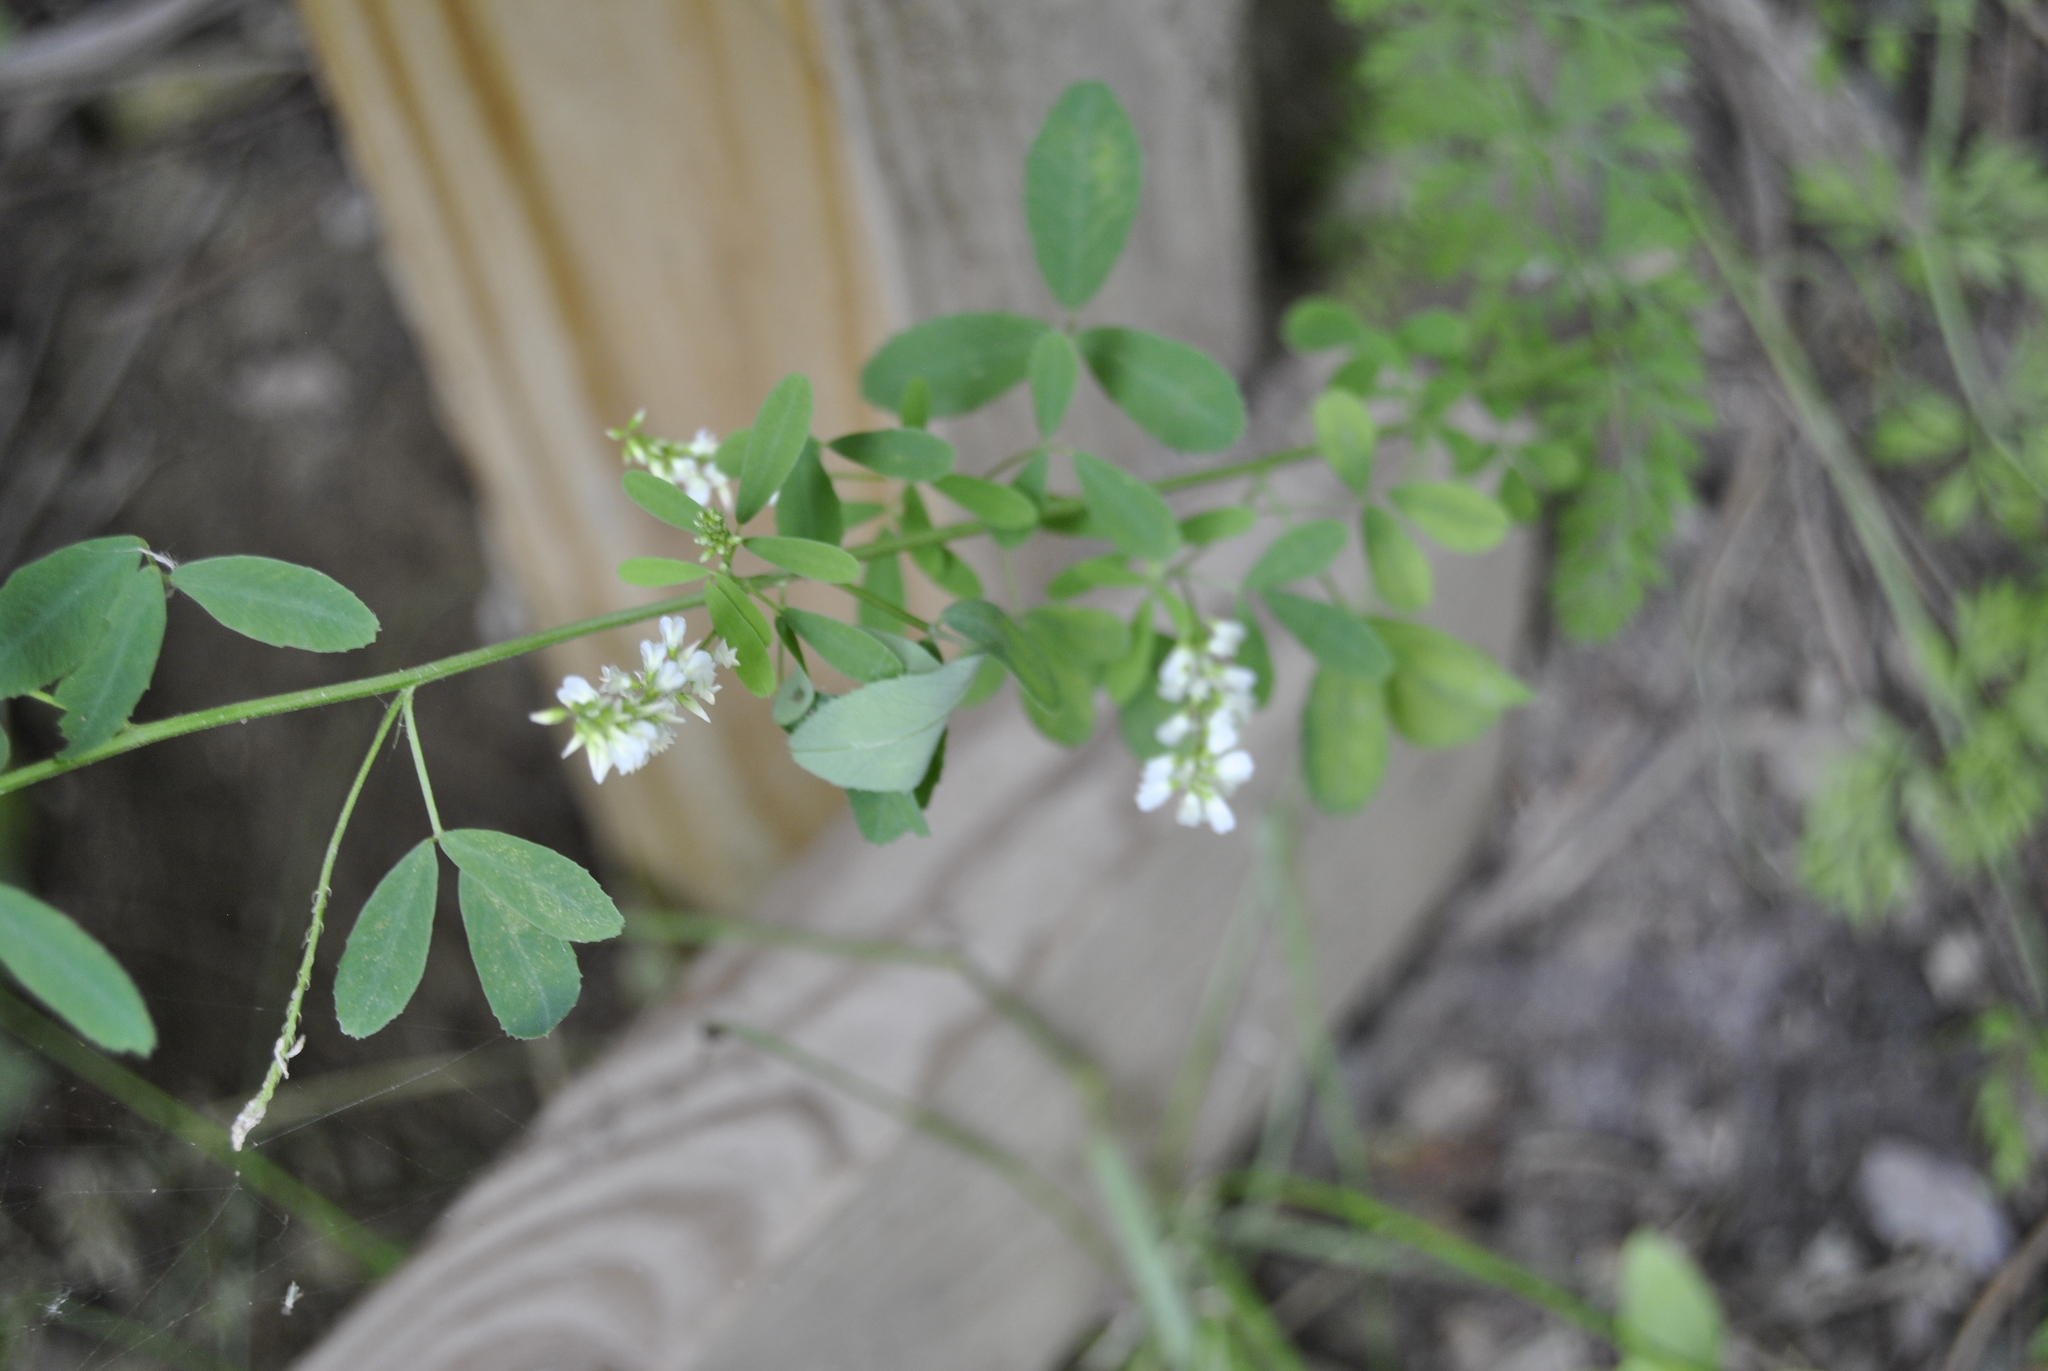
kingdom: Plantae
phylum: Tracheophyta
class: Magnoliopsida
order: Fabales
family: Fabaceae
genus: Melilotus
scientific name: Melilotus albus
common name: White melilot
